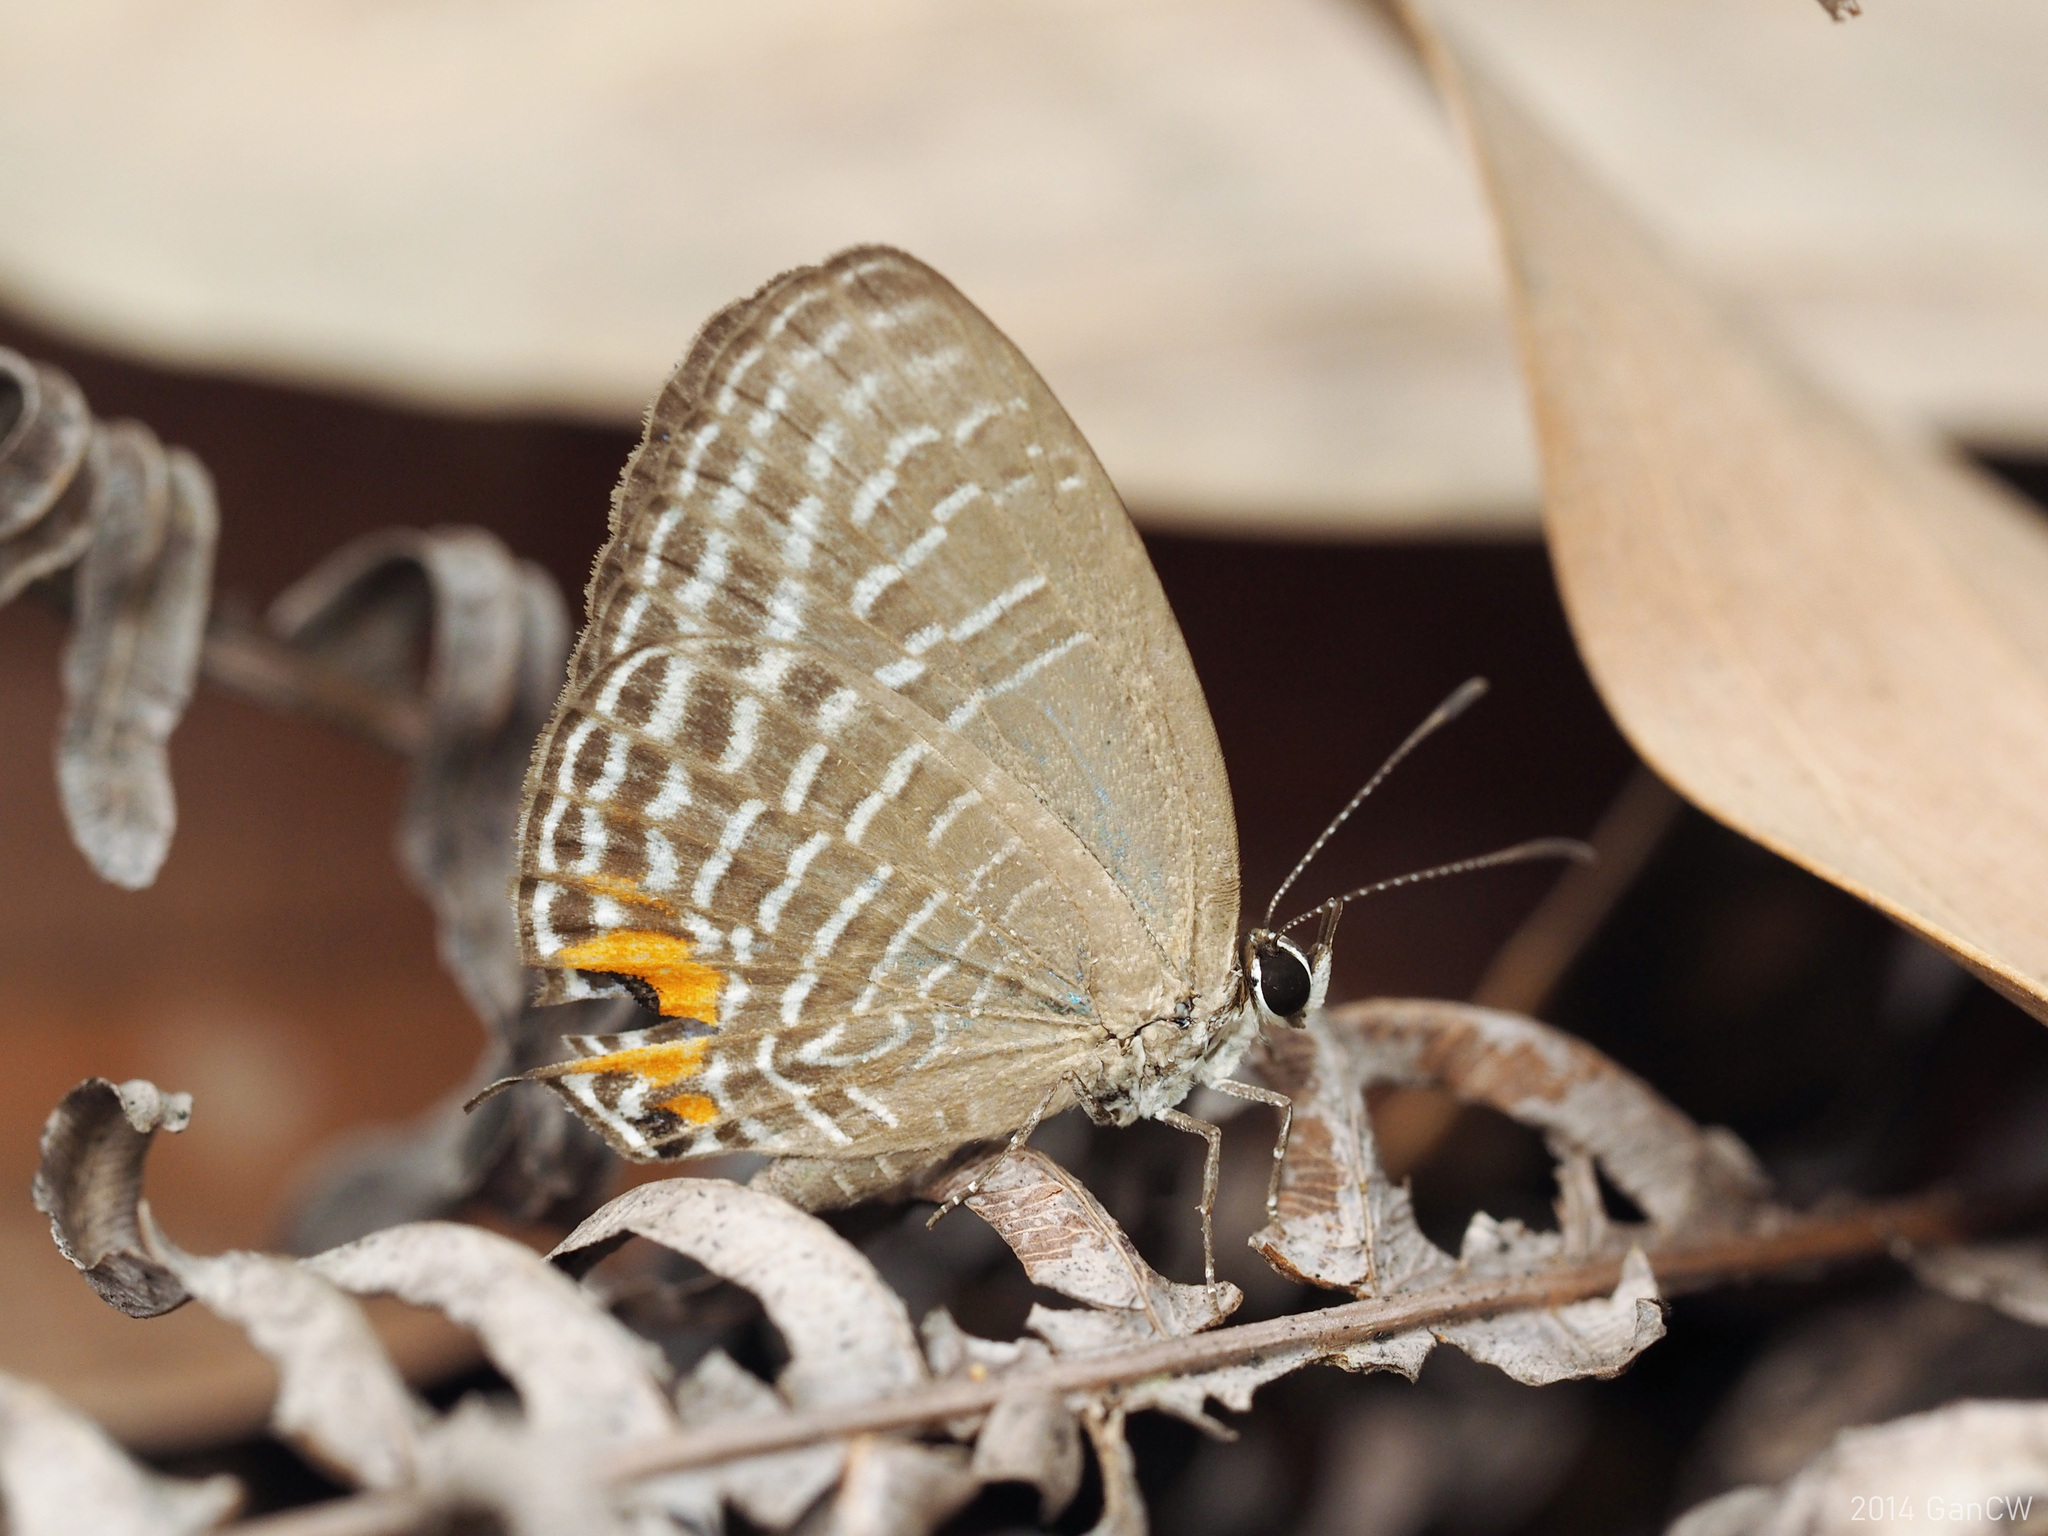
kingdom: Animalia
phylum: Arthropoda
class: Insecta
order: Lepidoptera
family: Lycaenidae
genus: Jamides
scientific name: Jamides elpis
